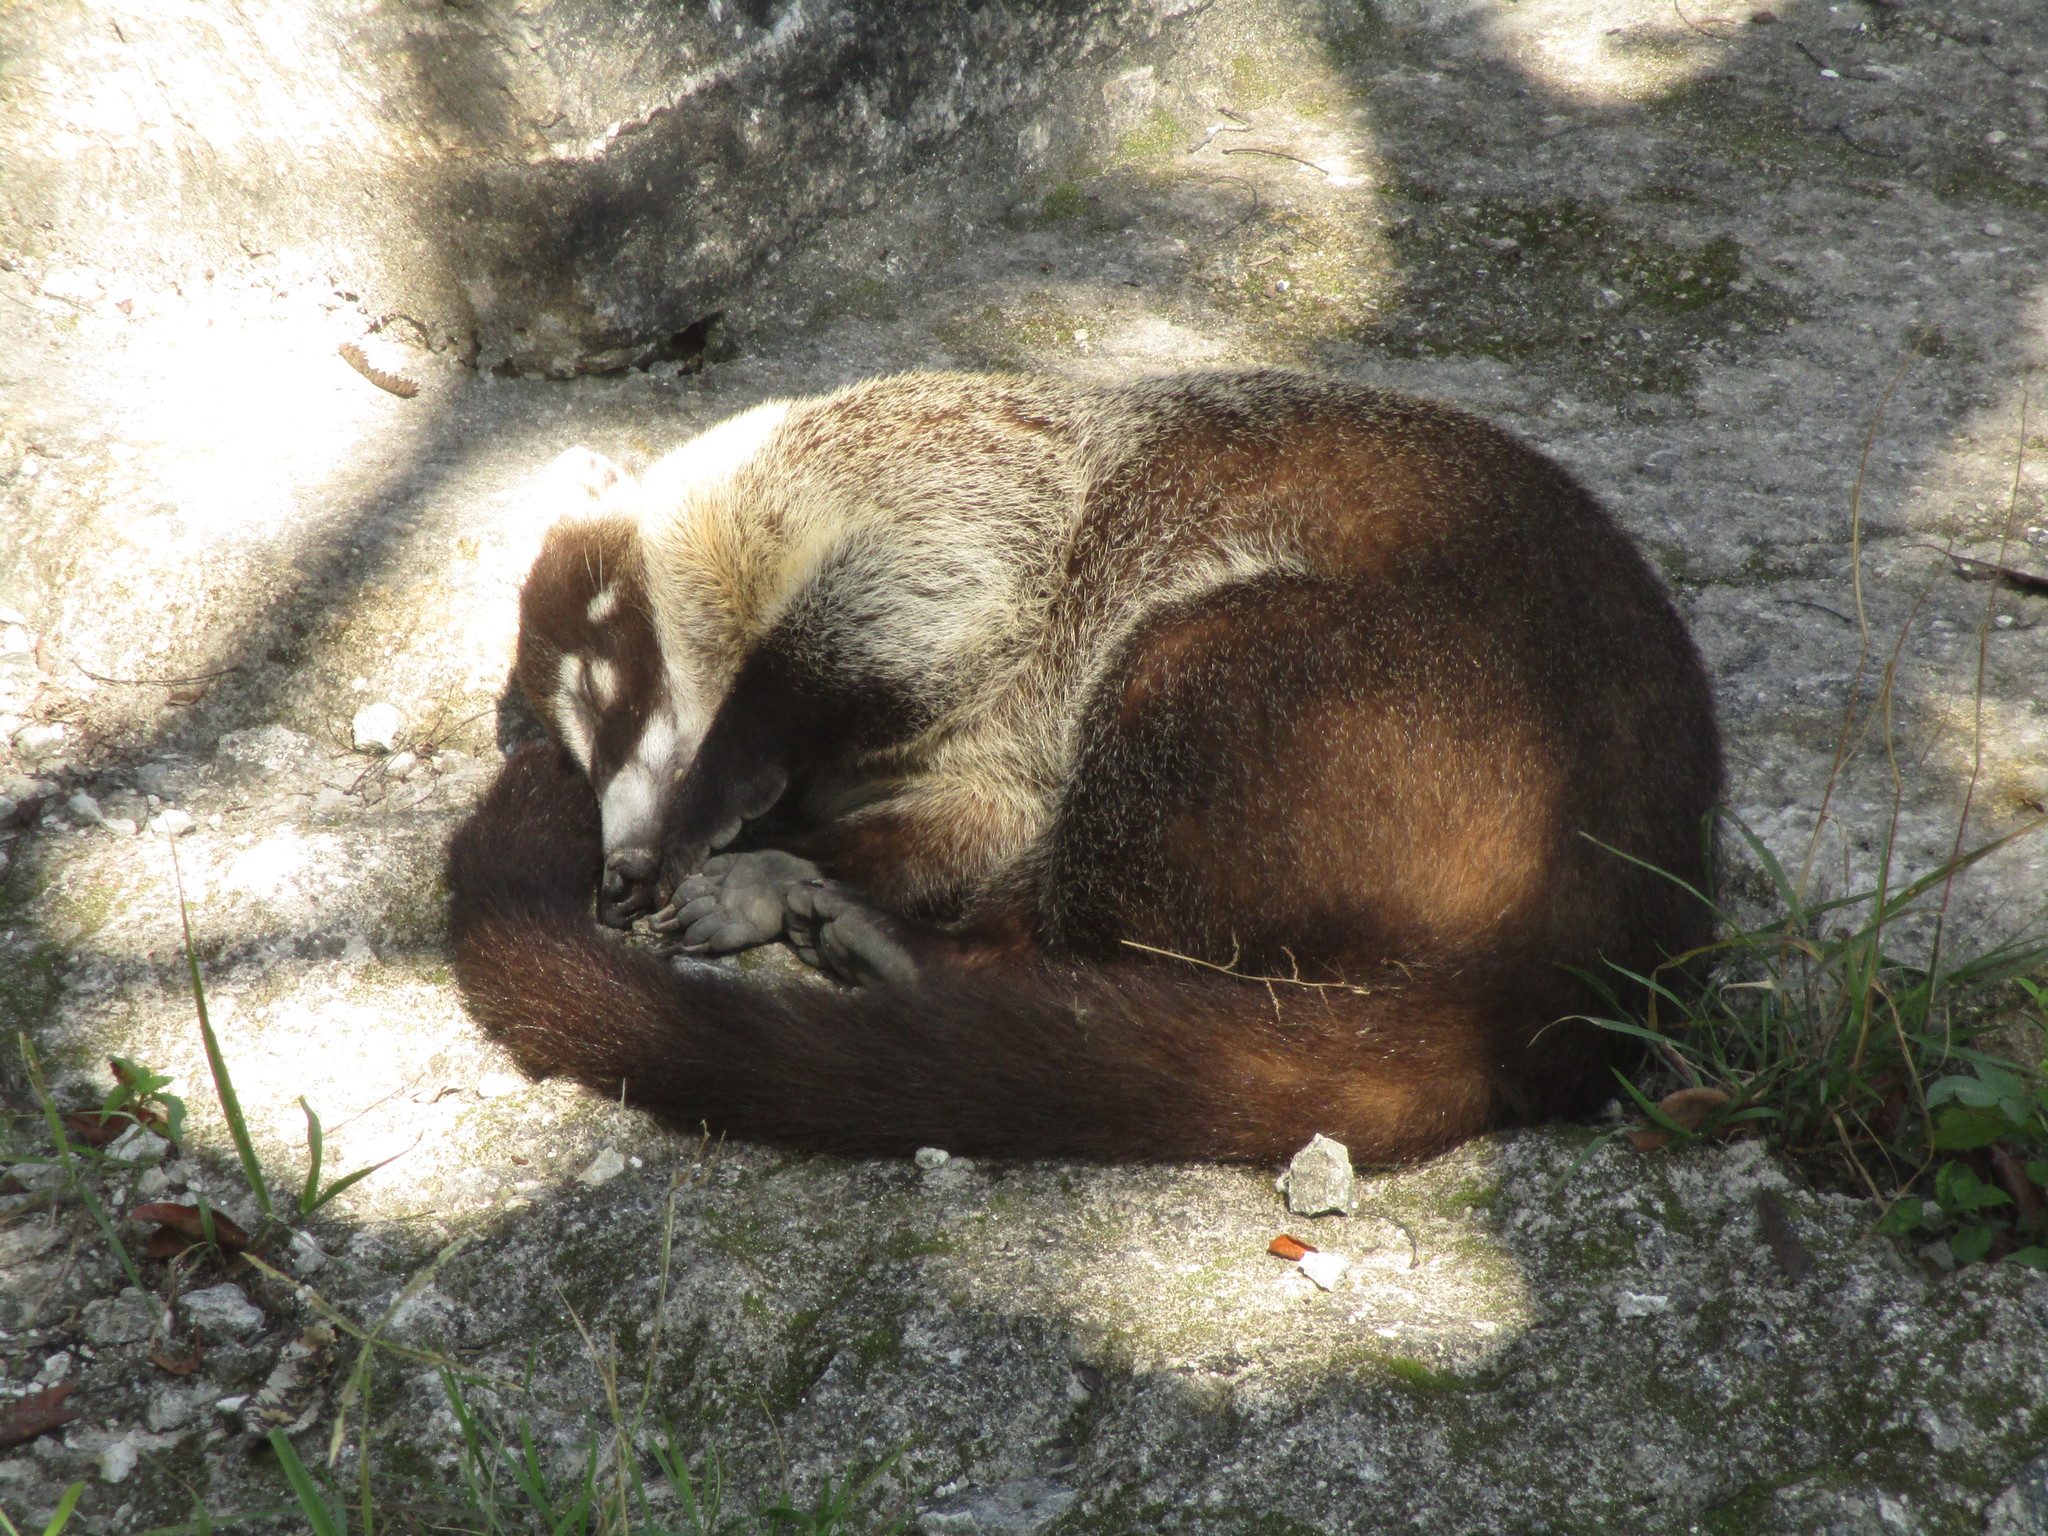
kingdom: Animalia
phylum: Chordata
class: Mammalia
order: Carnivora
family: Procyonidae
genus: Nasua
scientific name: Nasua narica
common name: White-nosed coati
